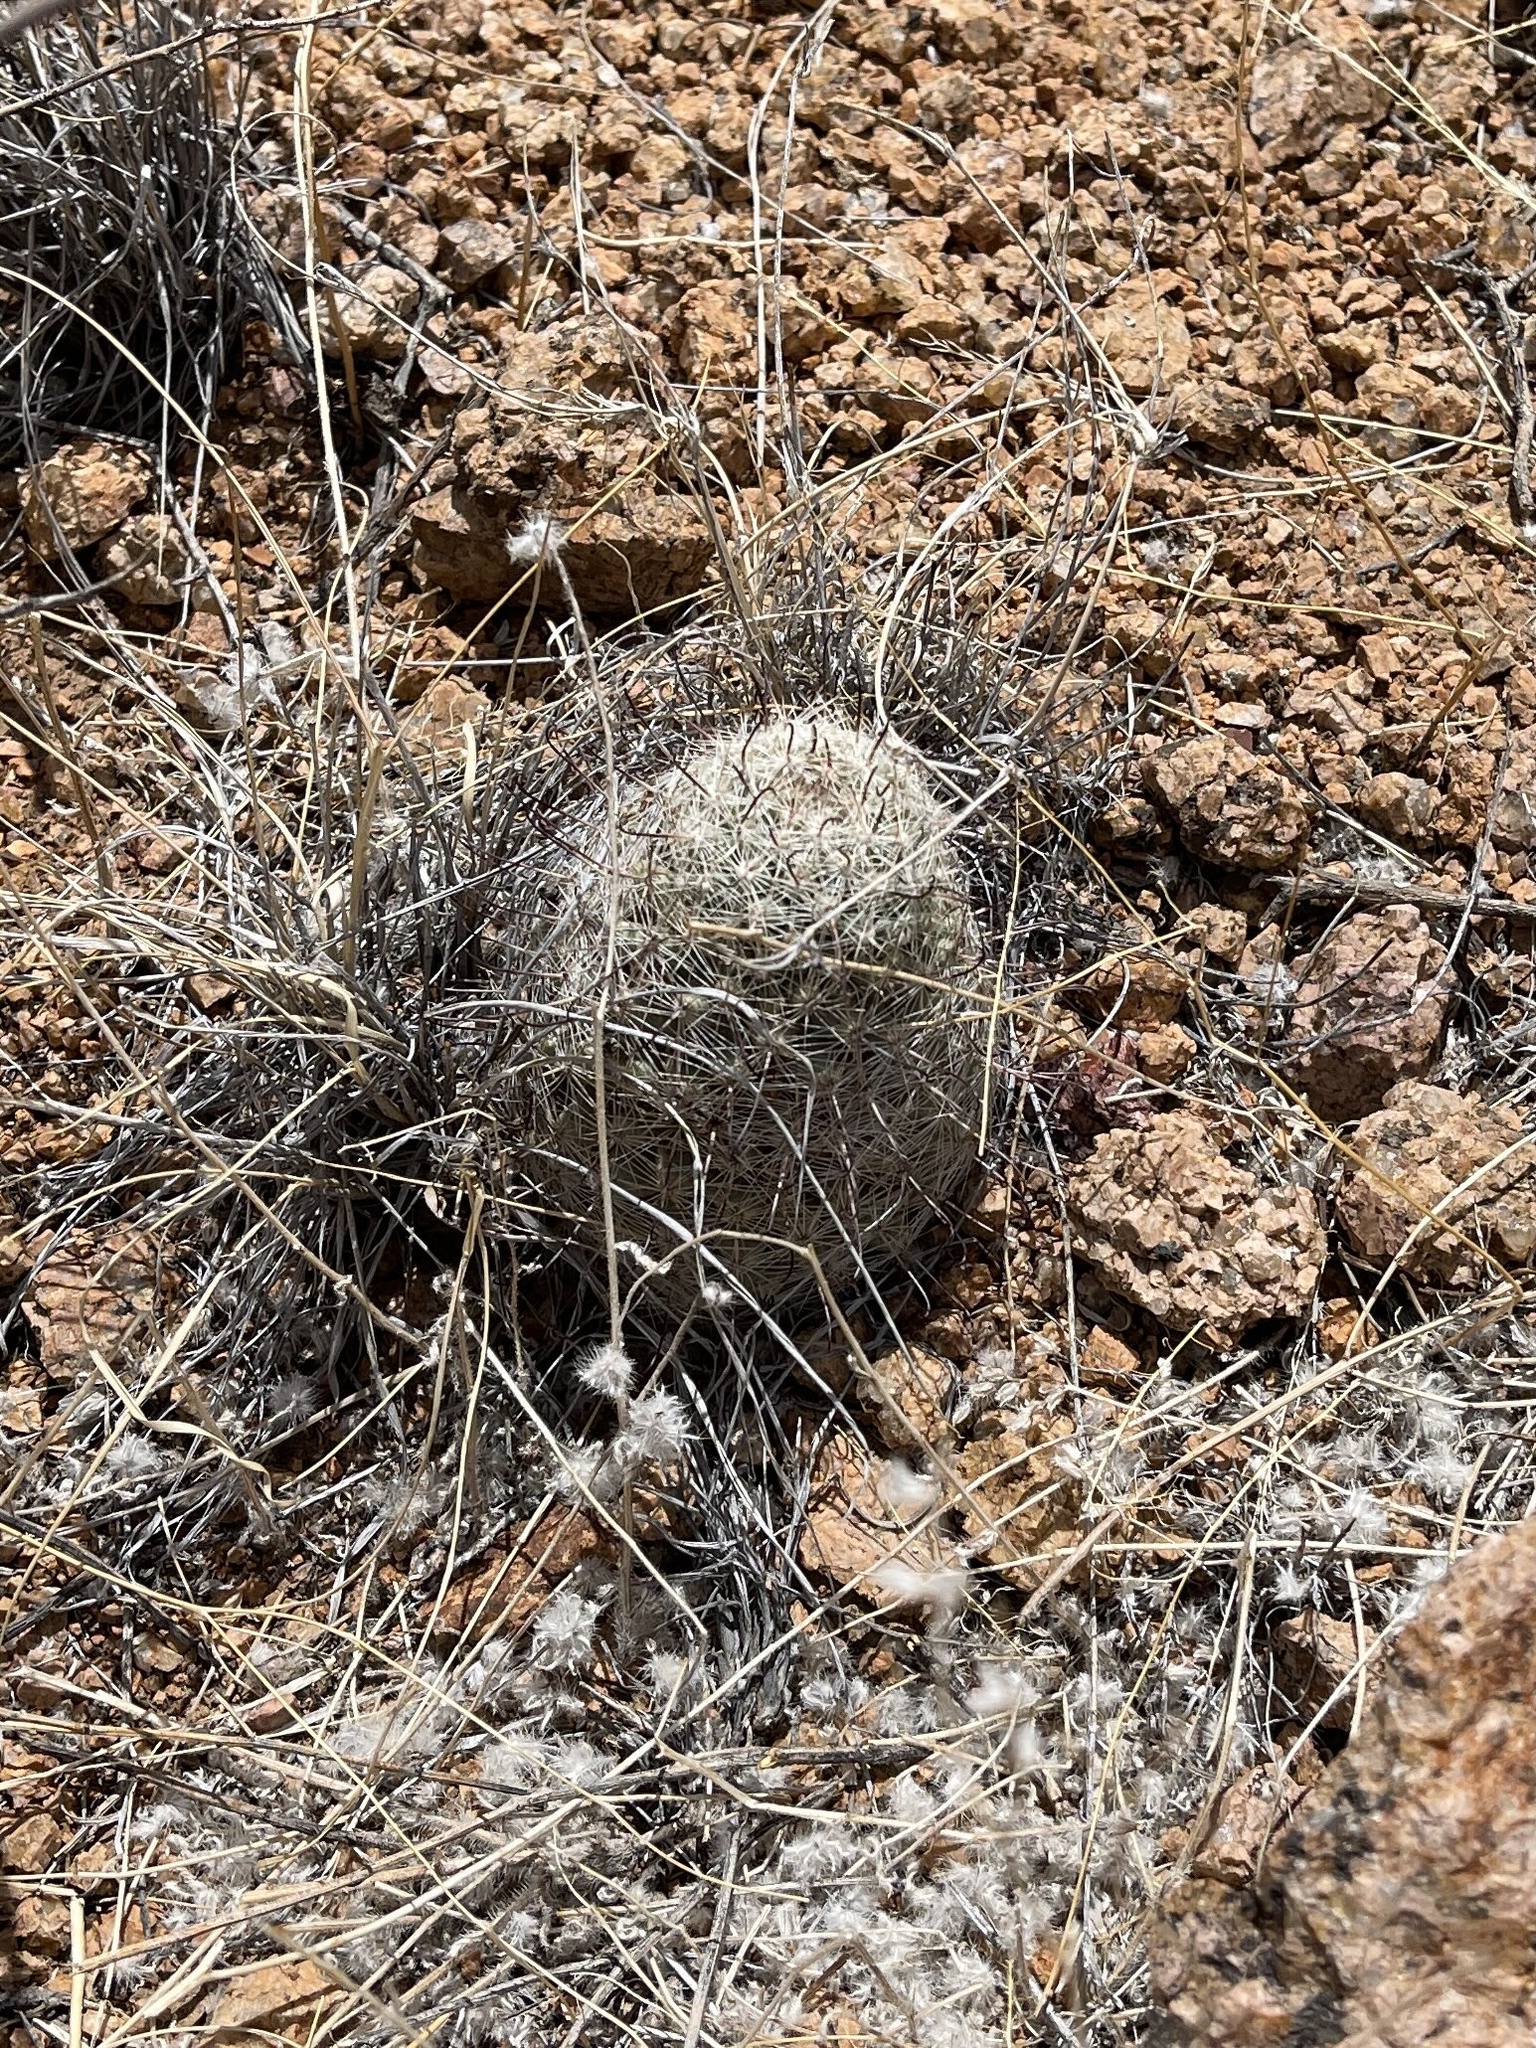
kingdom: Plantae
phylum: Tracheophyta
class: Magnoliopsida
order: Caryophyllales
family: Cactaceae
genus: Cochemiea
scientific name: Cochemiea grahamii
